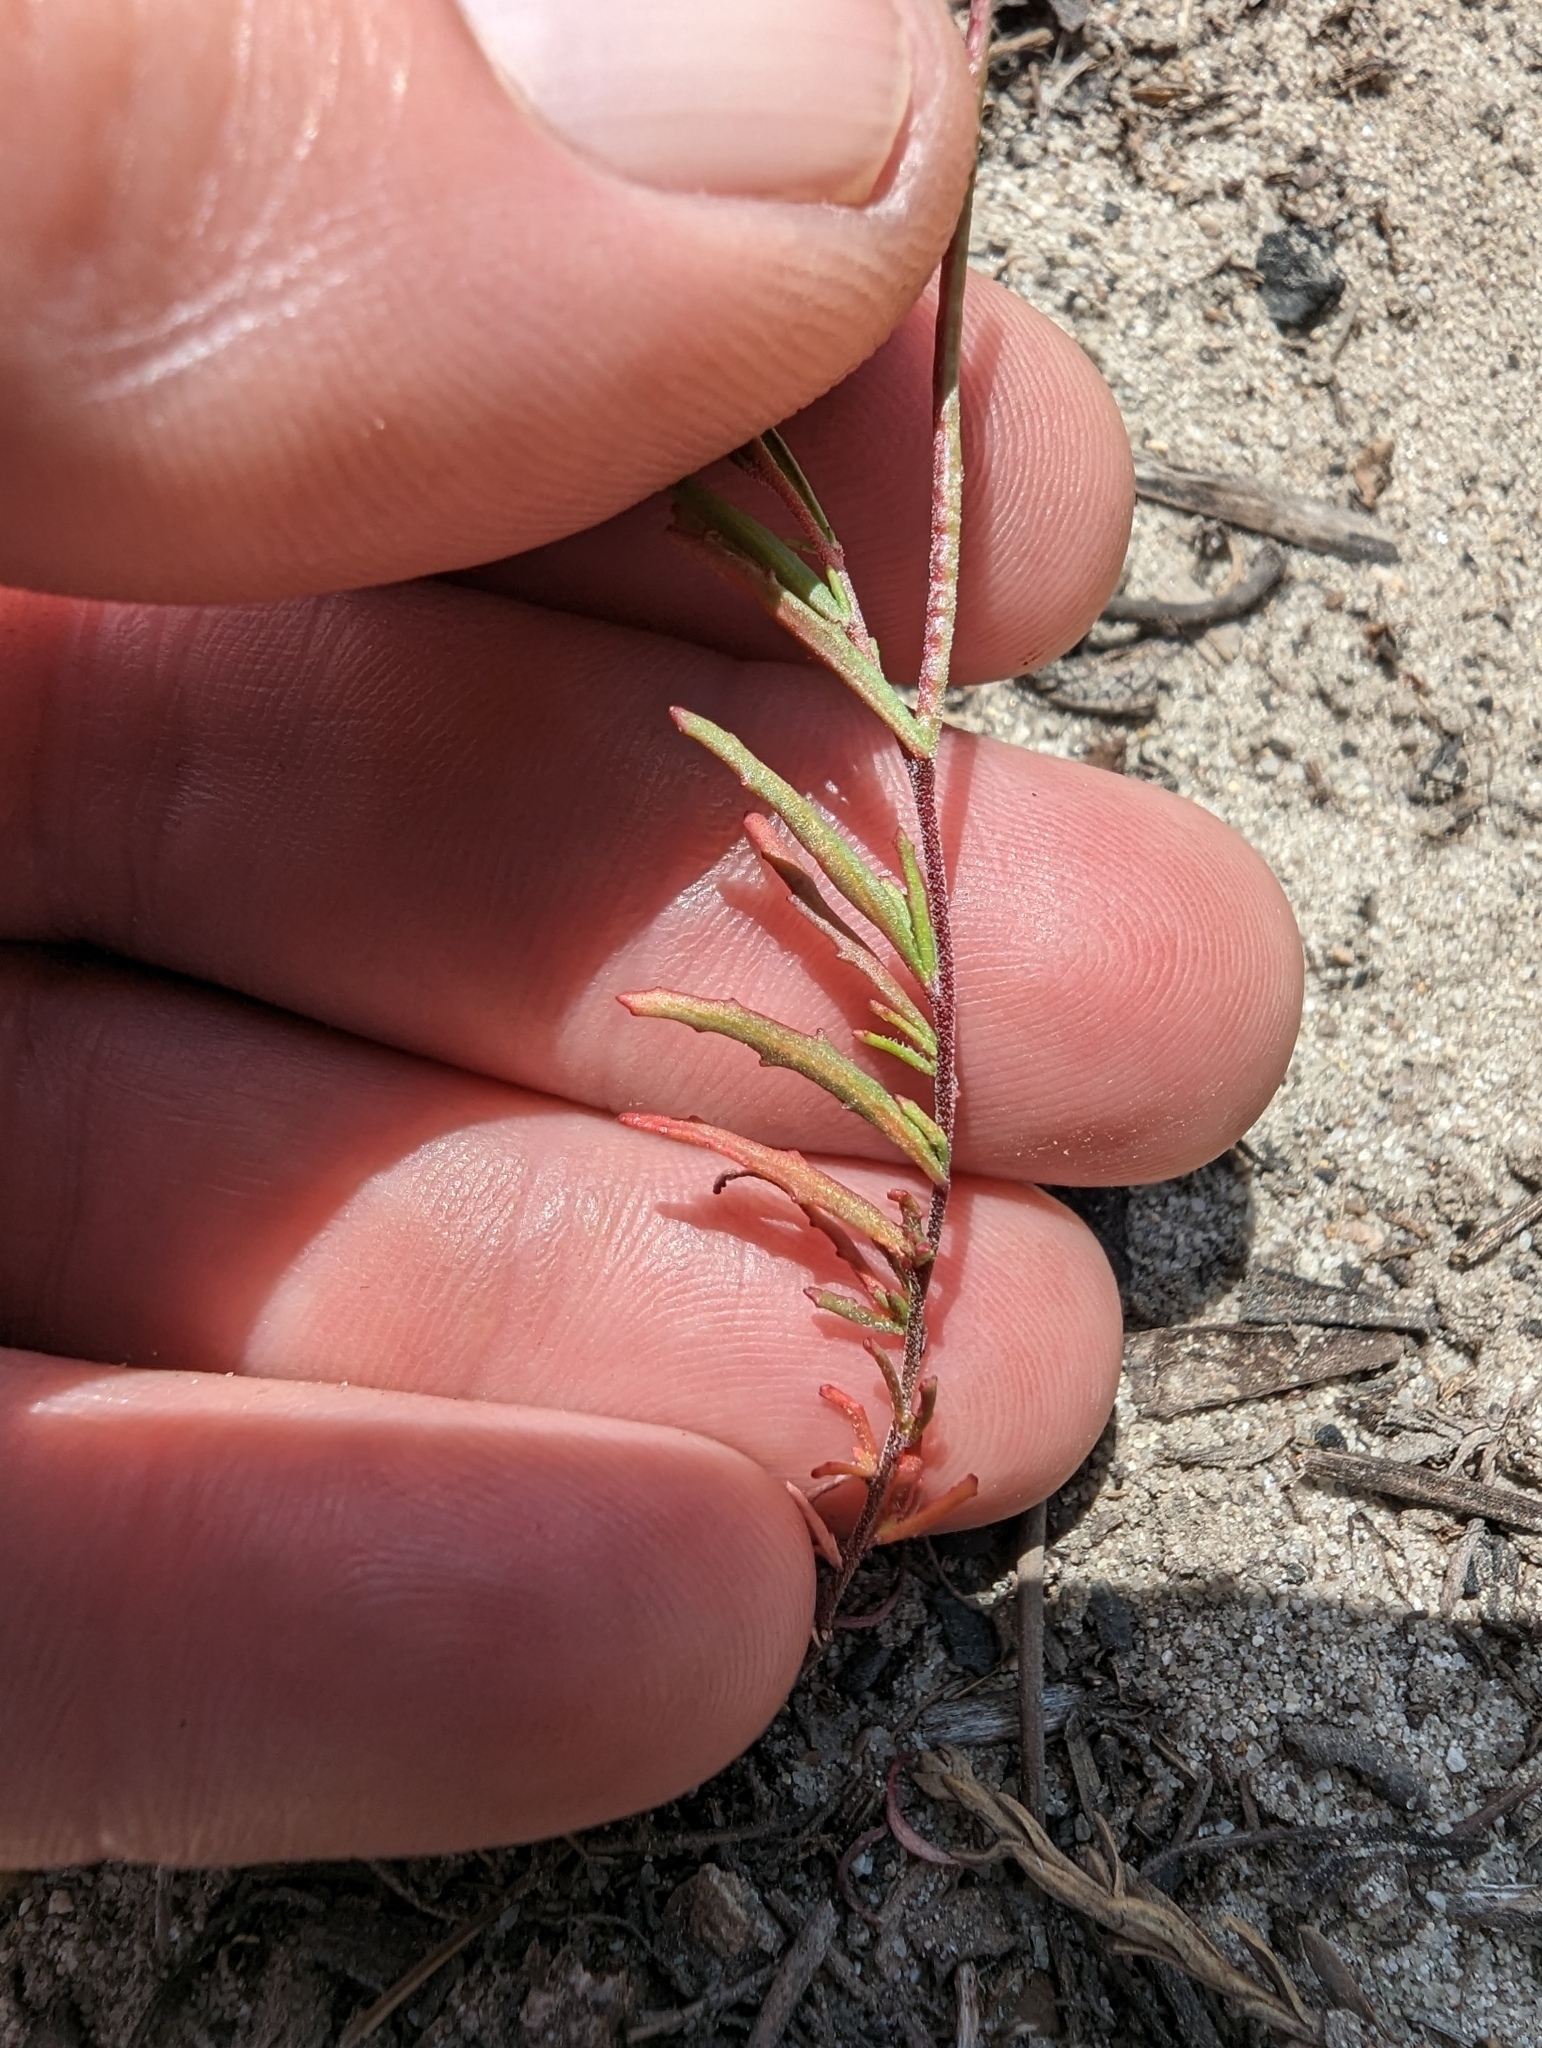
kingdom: Plantae
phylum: Tracheophyta
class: Magnoliopsida
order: Myrtales
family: Onagraceae
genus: Camissonia
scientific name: Camissonia strigulosa
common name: Contorted-primrose
